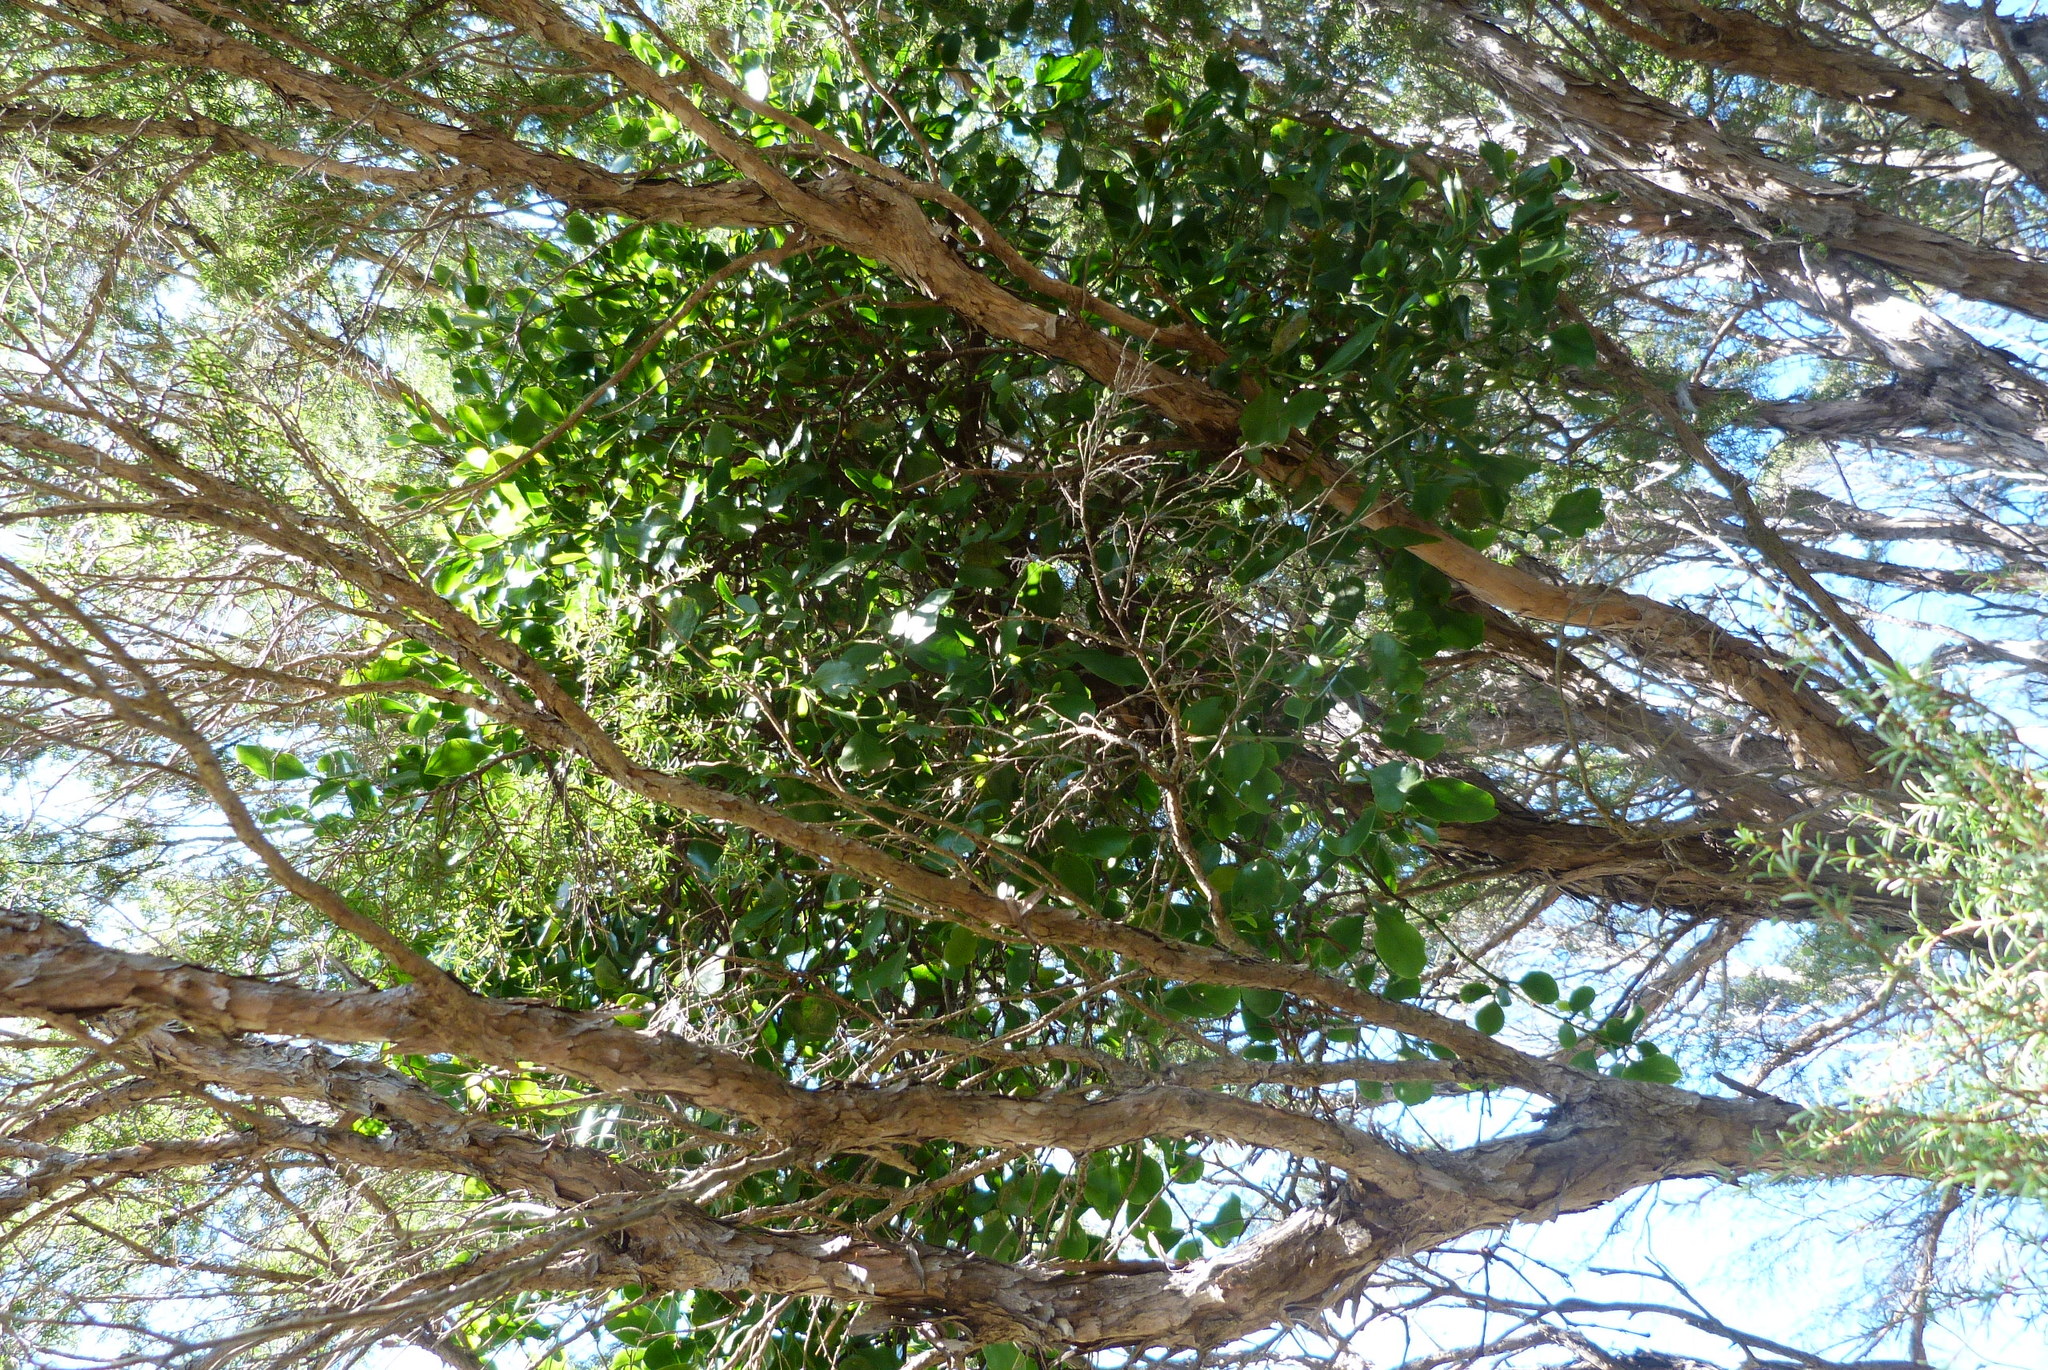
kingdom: Plantae
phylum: Tracheophyta
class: Magnoliopsida
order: Santalales
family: Loranthaceae
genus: Ileostylus
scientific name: Ileostylus micranthus
